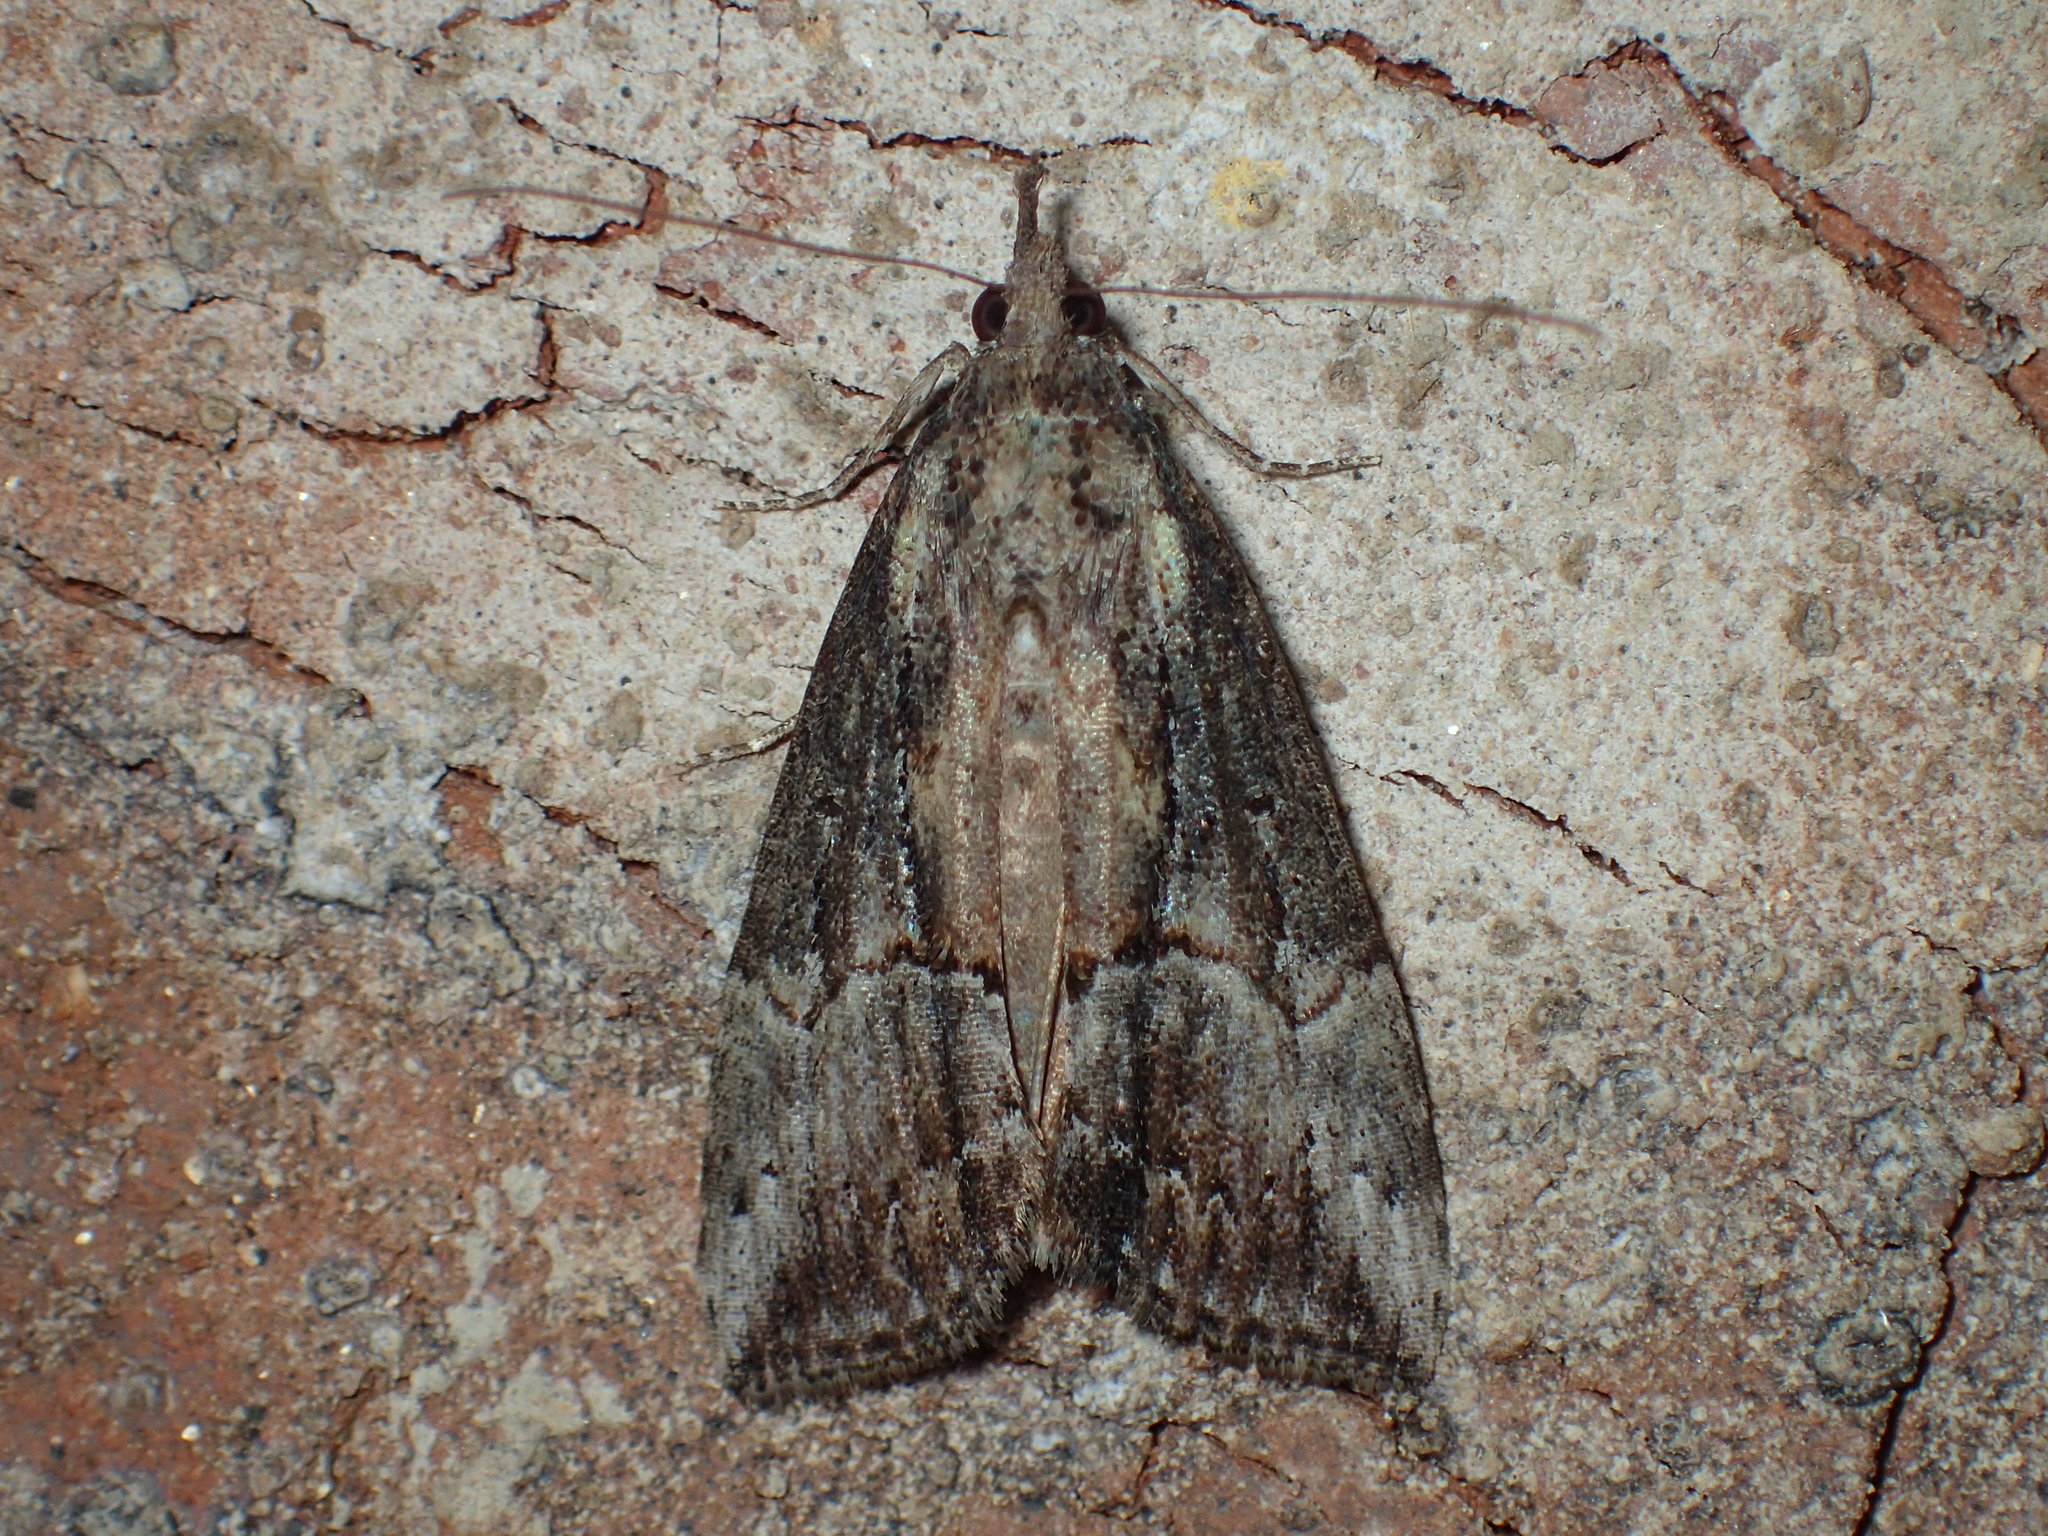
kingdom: Animalia
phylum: Arthropoda
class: Insecta
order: Lepidoptera
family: Erebidae
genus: Hypena
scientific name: Hypena scabra
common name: Green cloverworm
